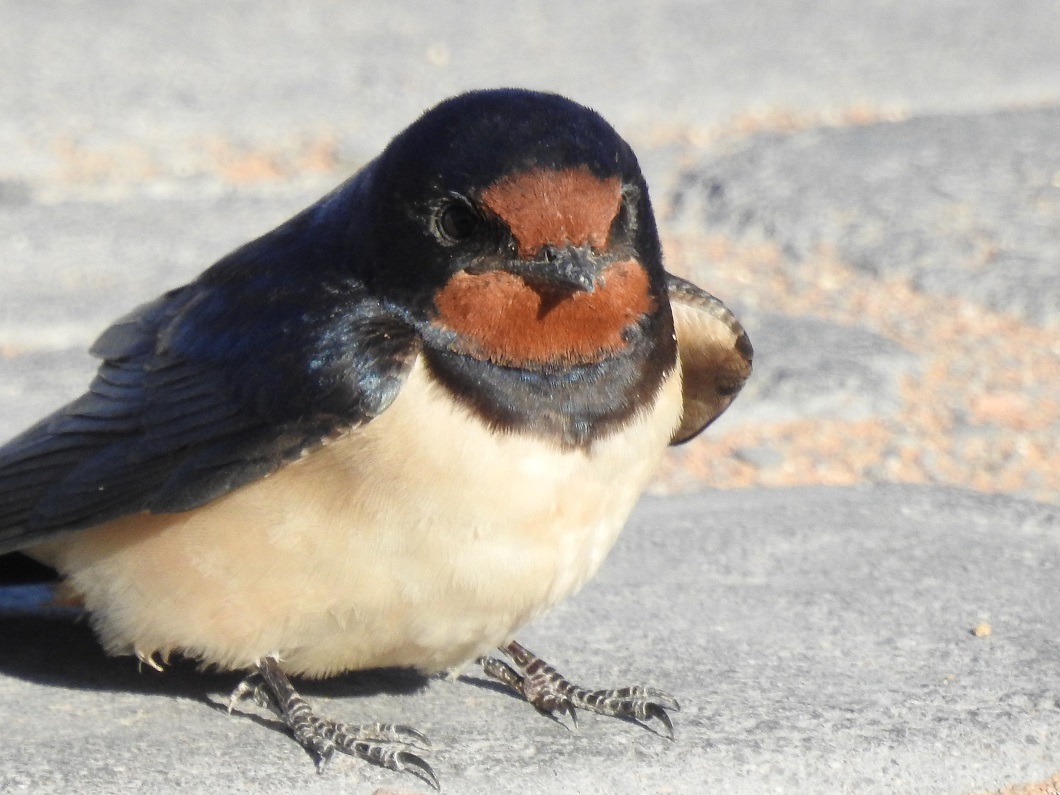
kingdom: Animalia
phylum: Chordata
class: Aves
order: Passeriformes
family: Hirundinidae
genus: Hirundo
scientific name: Hirundo rustica
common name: Barn swallow
